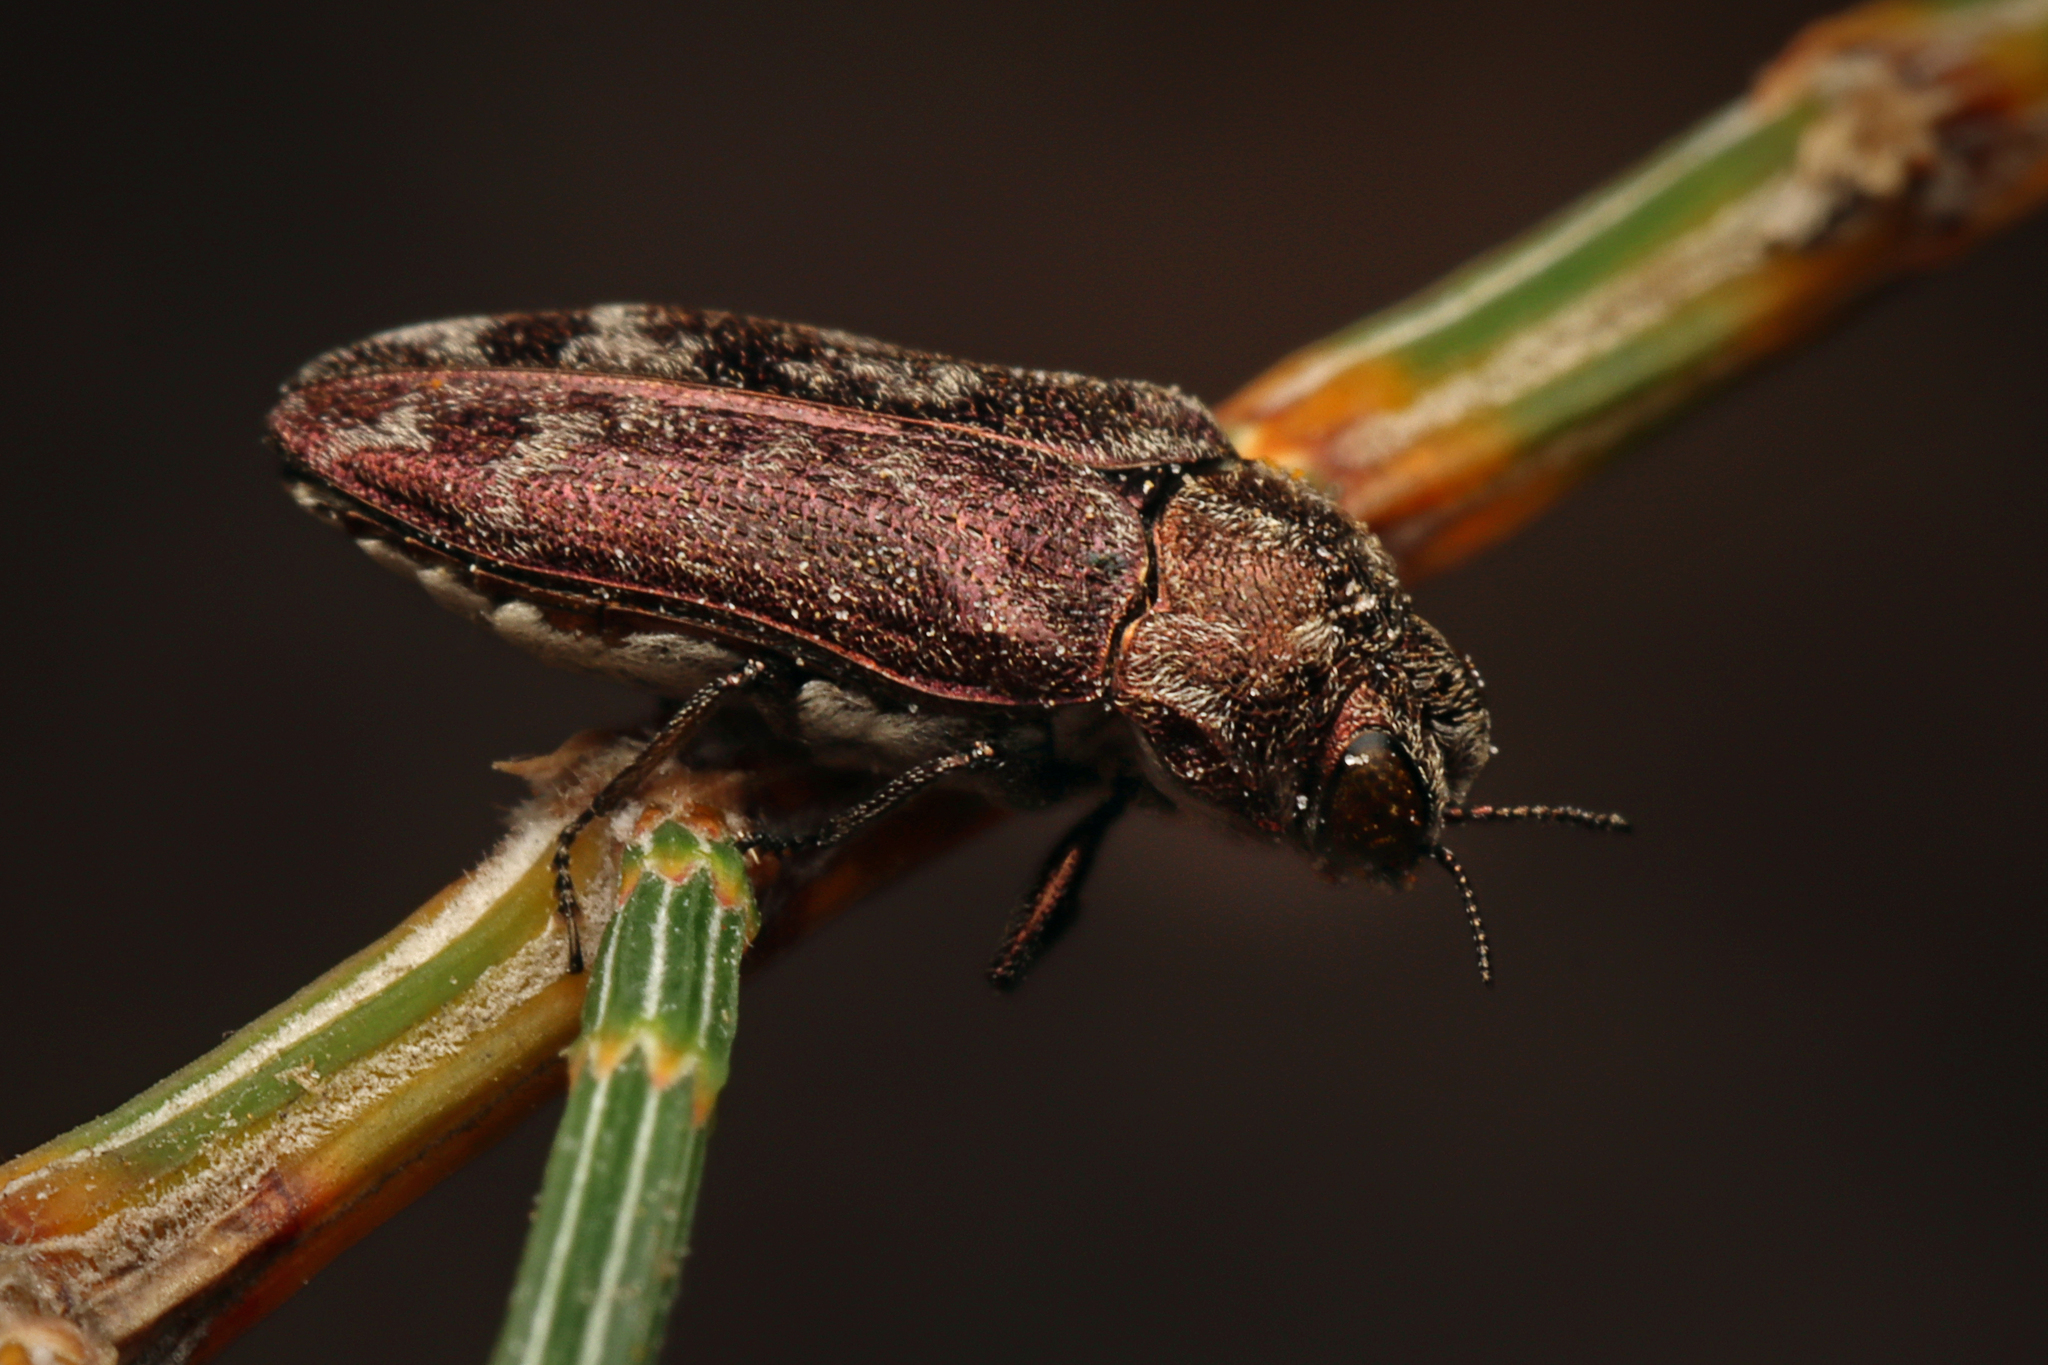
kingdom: Animalia
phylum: Arthropoda
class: Insecta
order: Coleoptera
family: Buprestidae
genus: Ethonion
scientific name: Ethonion reichei
